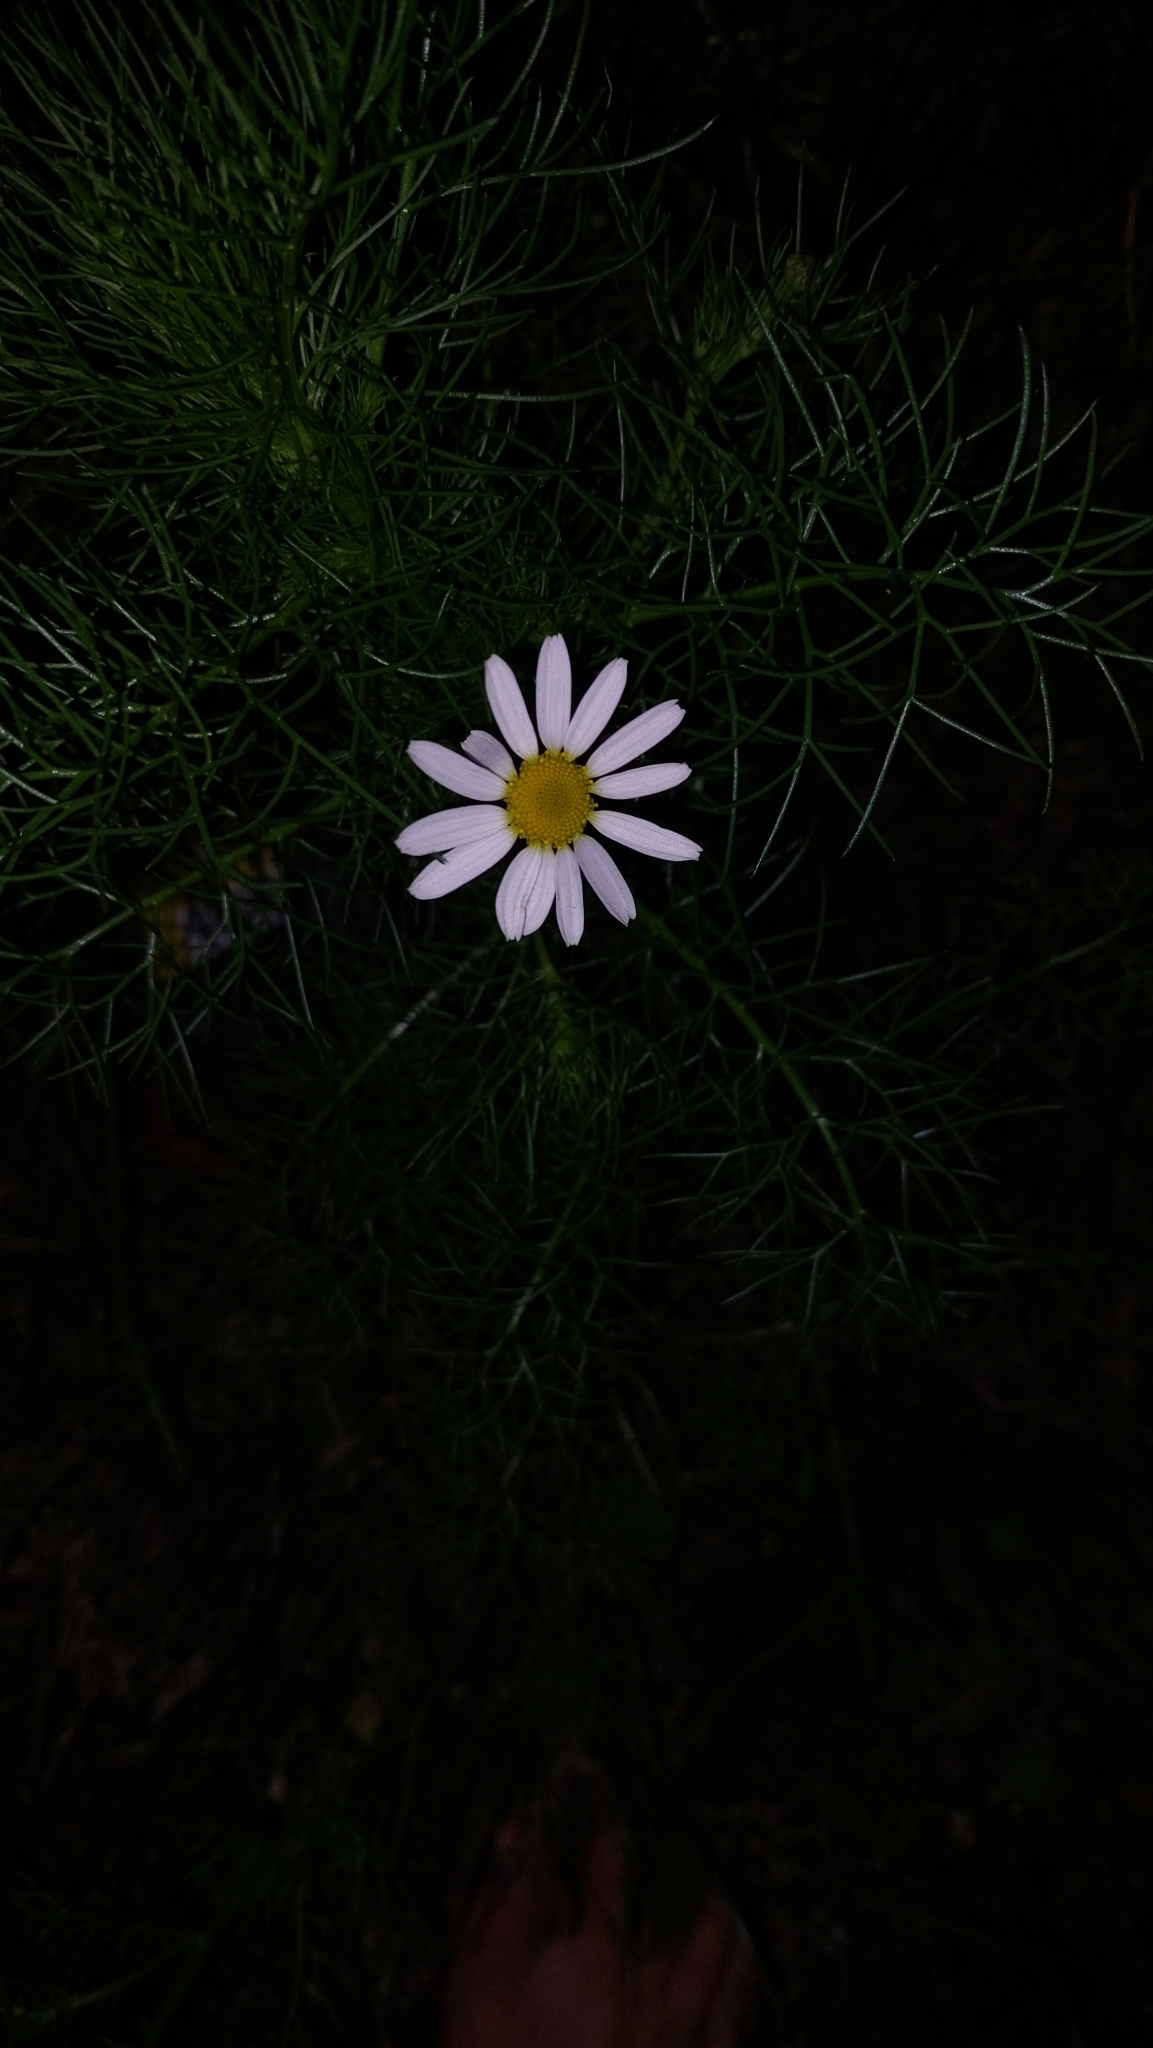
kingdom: Plantae
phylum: Tracheophyta
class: Magnoliopsida
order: Asterales
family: Asteraceae
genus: Tripleurospermum
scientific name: Tripleurospermum inodorum
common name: Scentless mayweed
